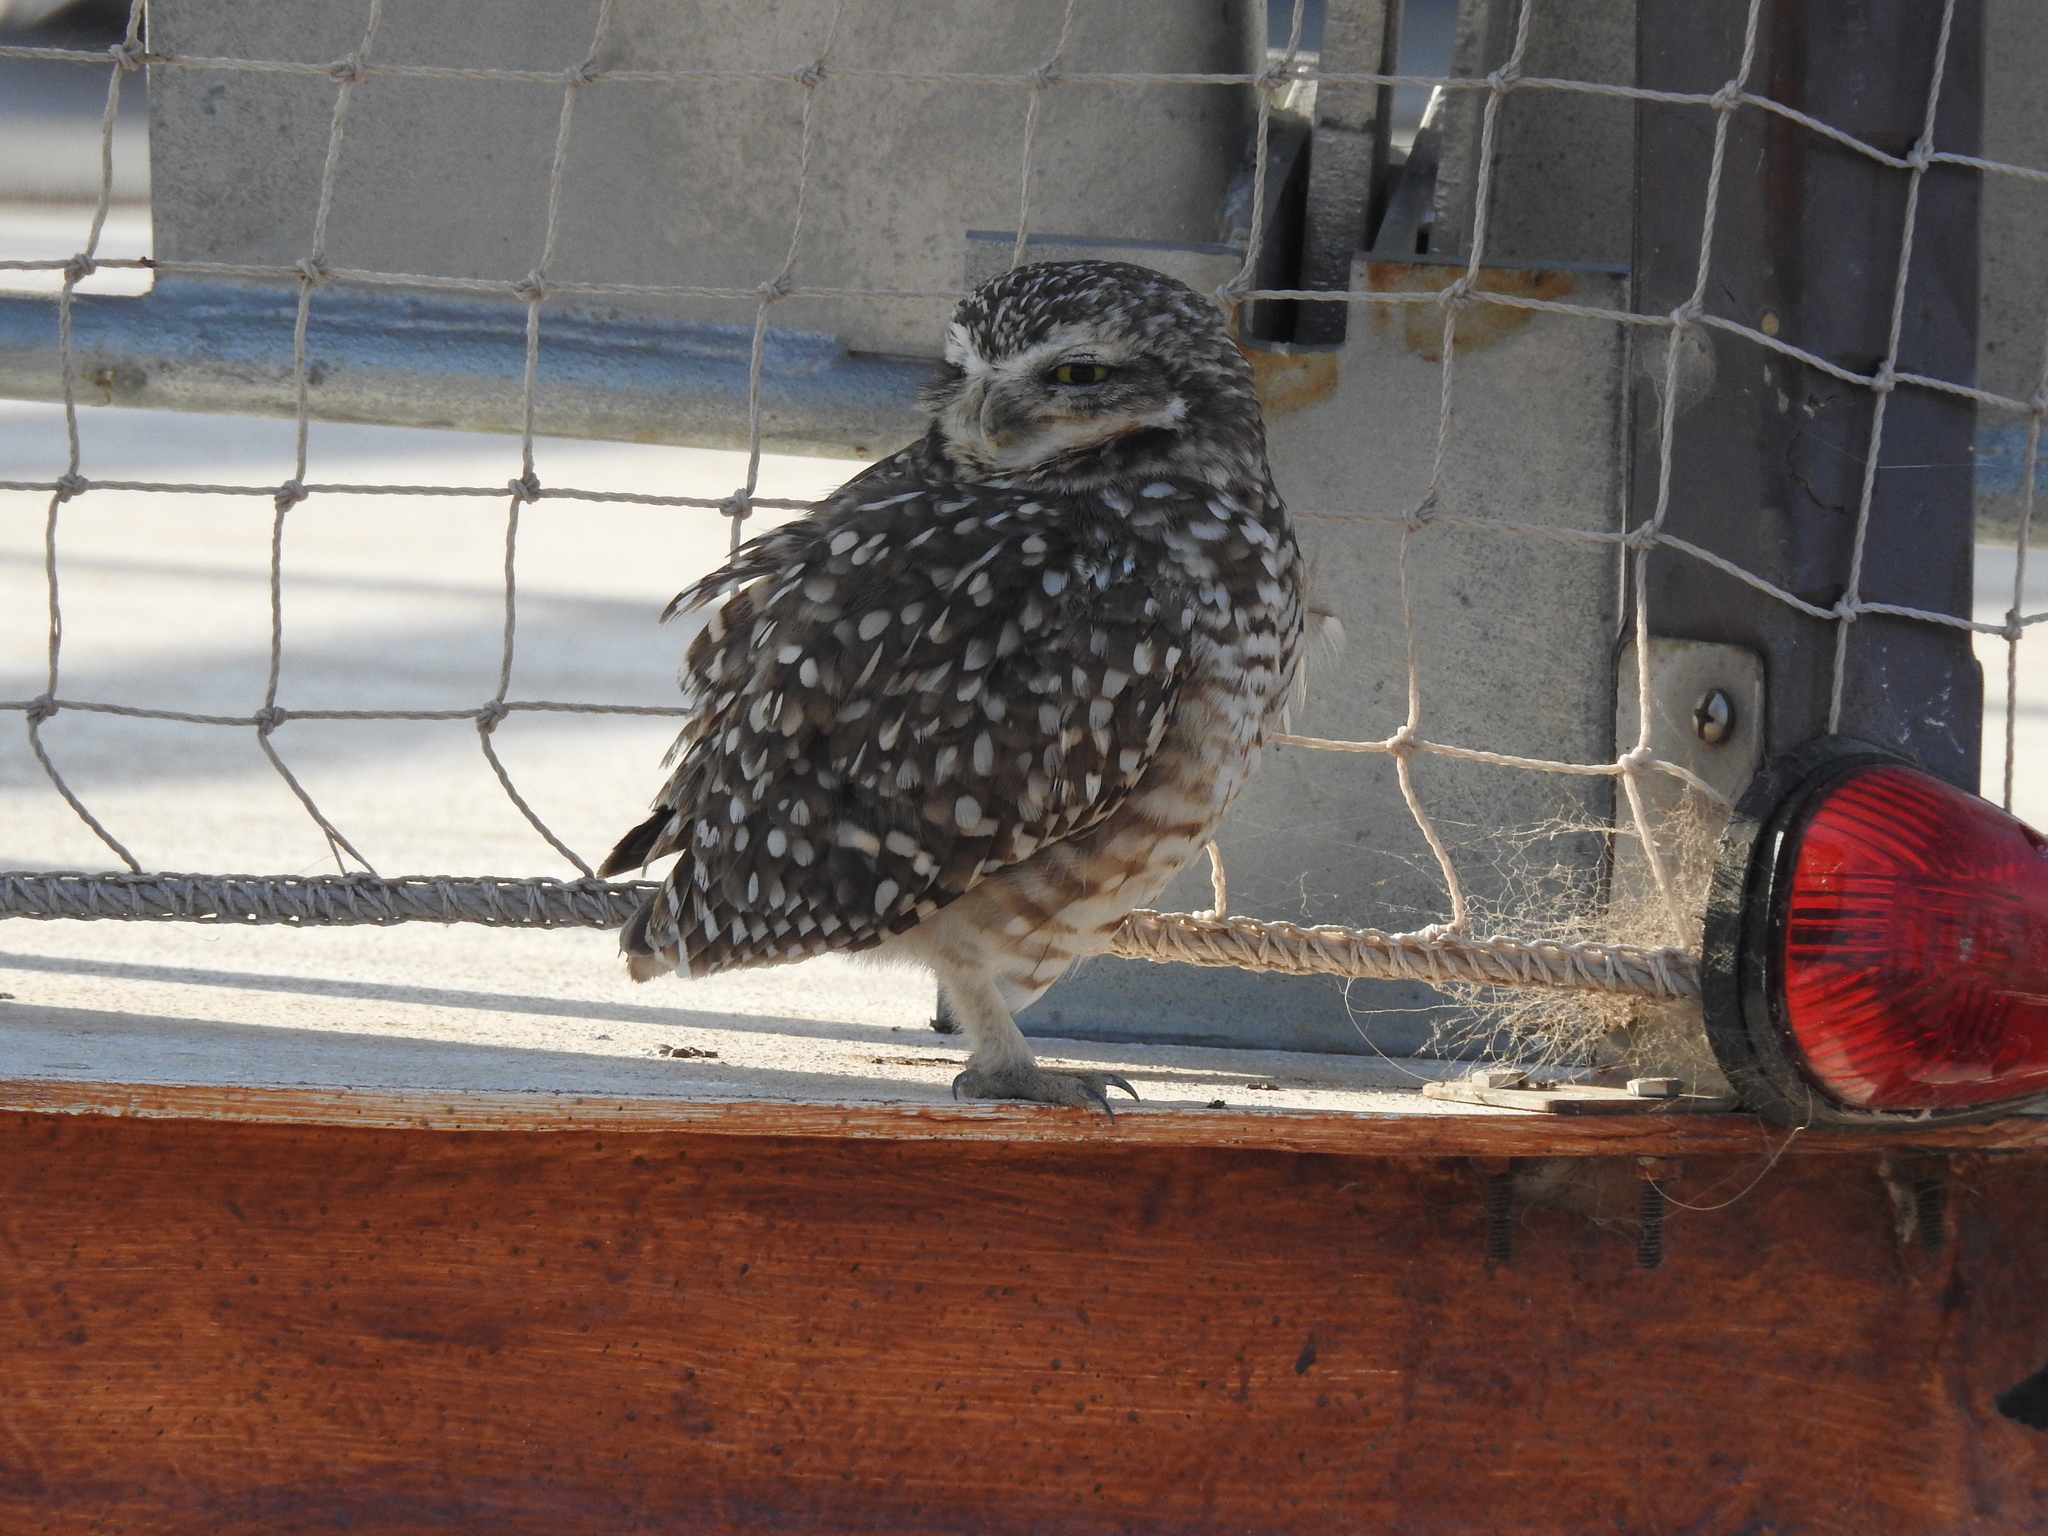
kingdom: Animalia
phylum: Chordata
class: Aves
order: Strigiformes
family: Strigidae
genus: Athene
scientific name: Athene cunicularia
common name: Burrowing owl
